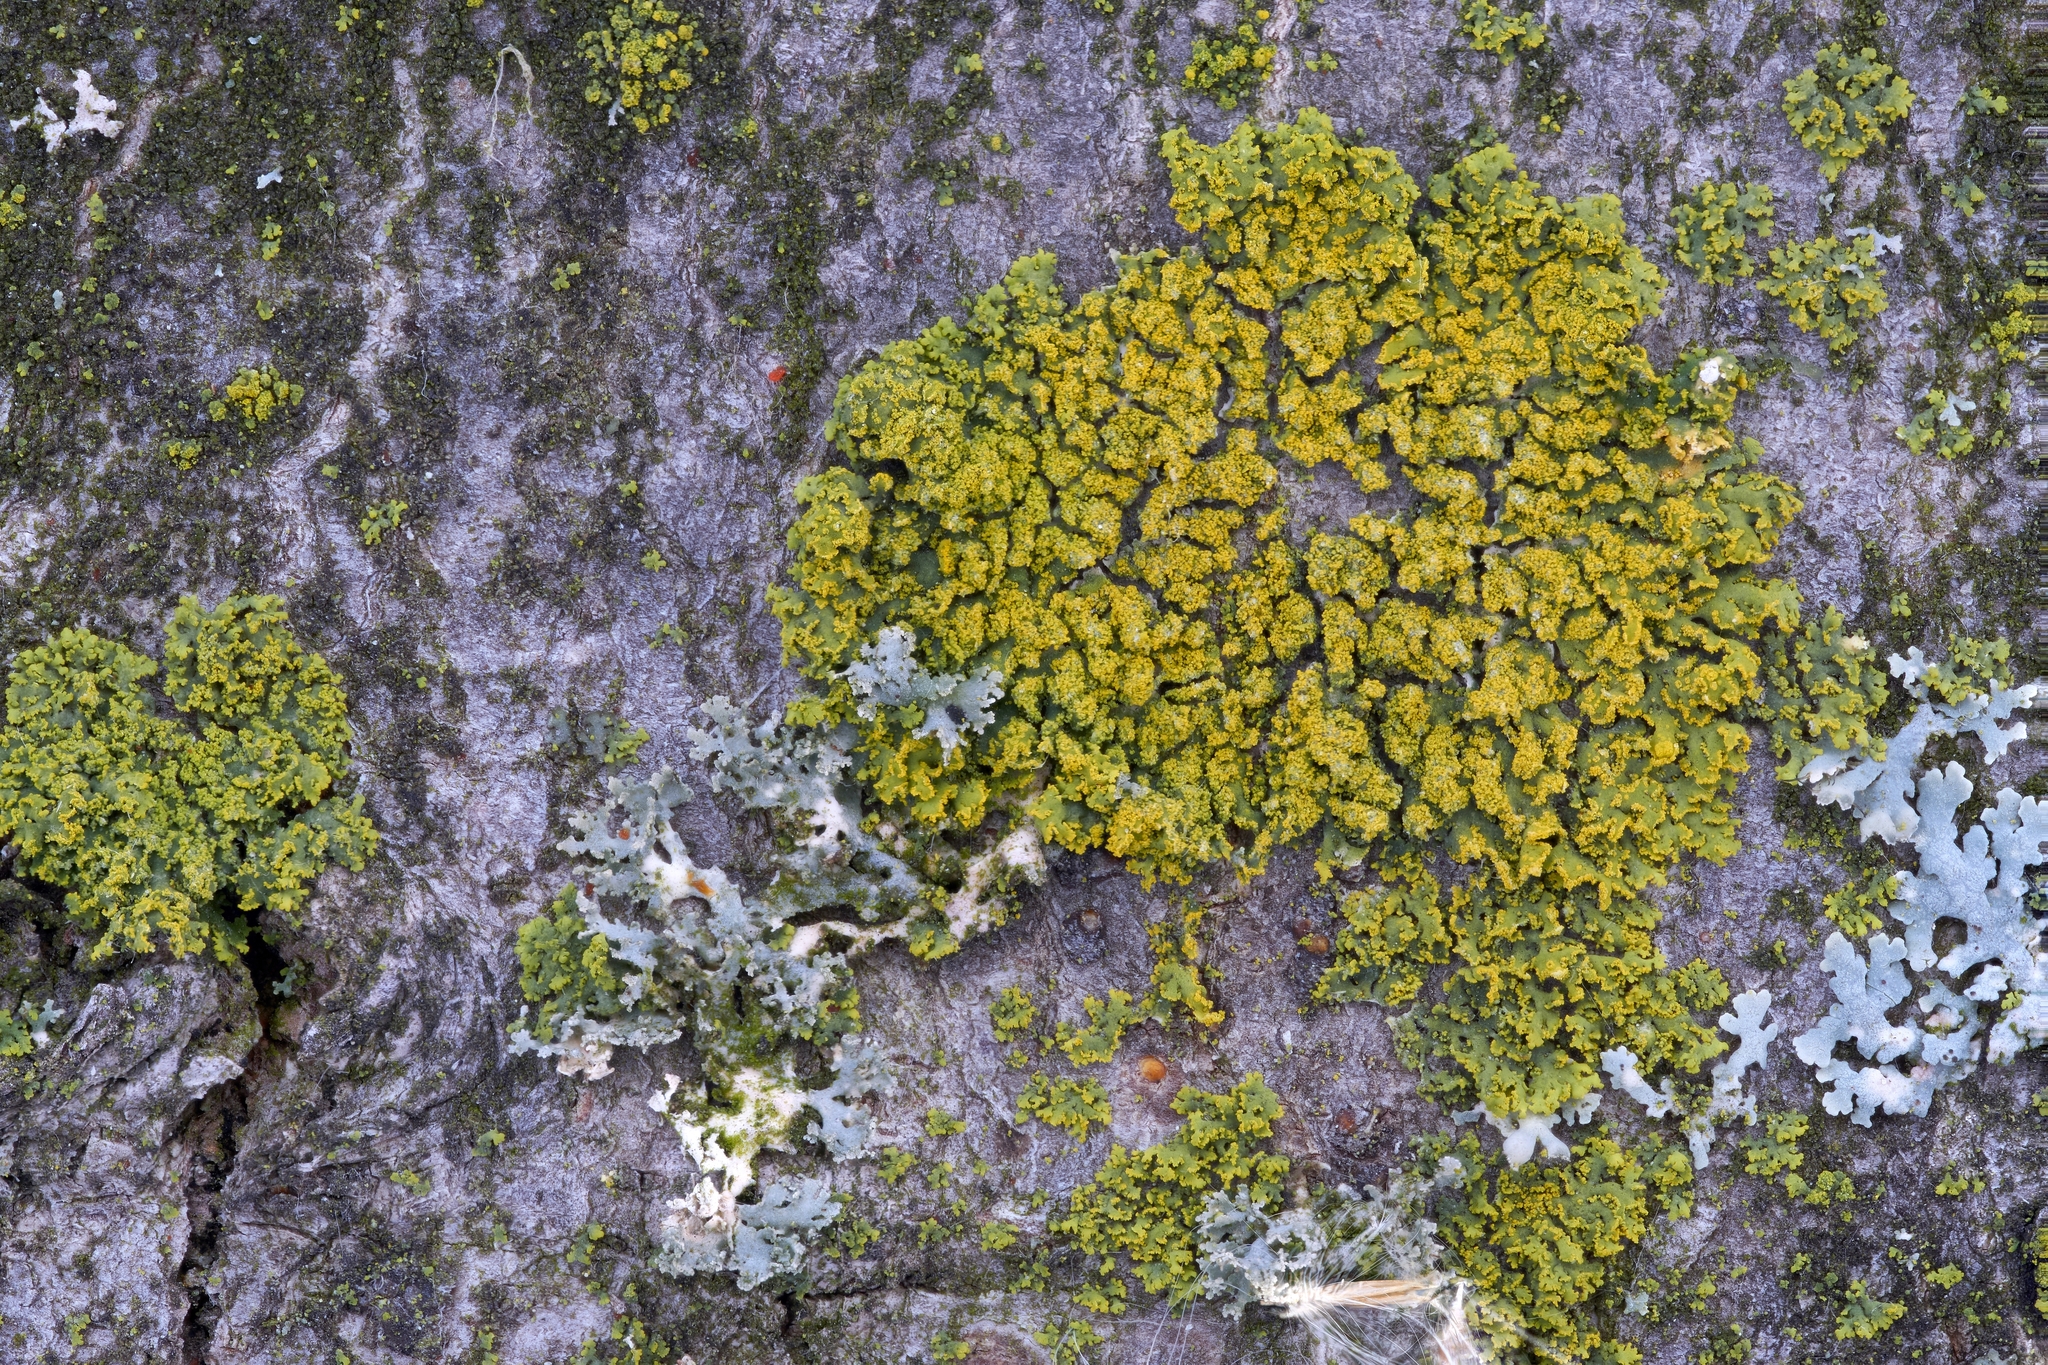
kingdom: Fungi
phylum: Ascomycota
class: Candelariomycetes
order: Candelariales
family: Candelariaceae
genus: Candelaria
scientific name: Candelaria concolor
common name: Candleflame lichen
